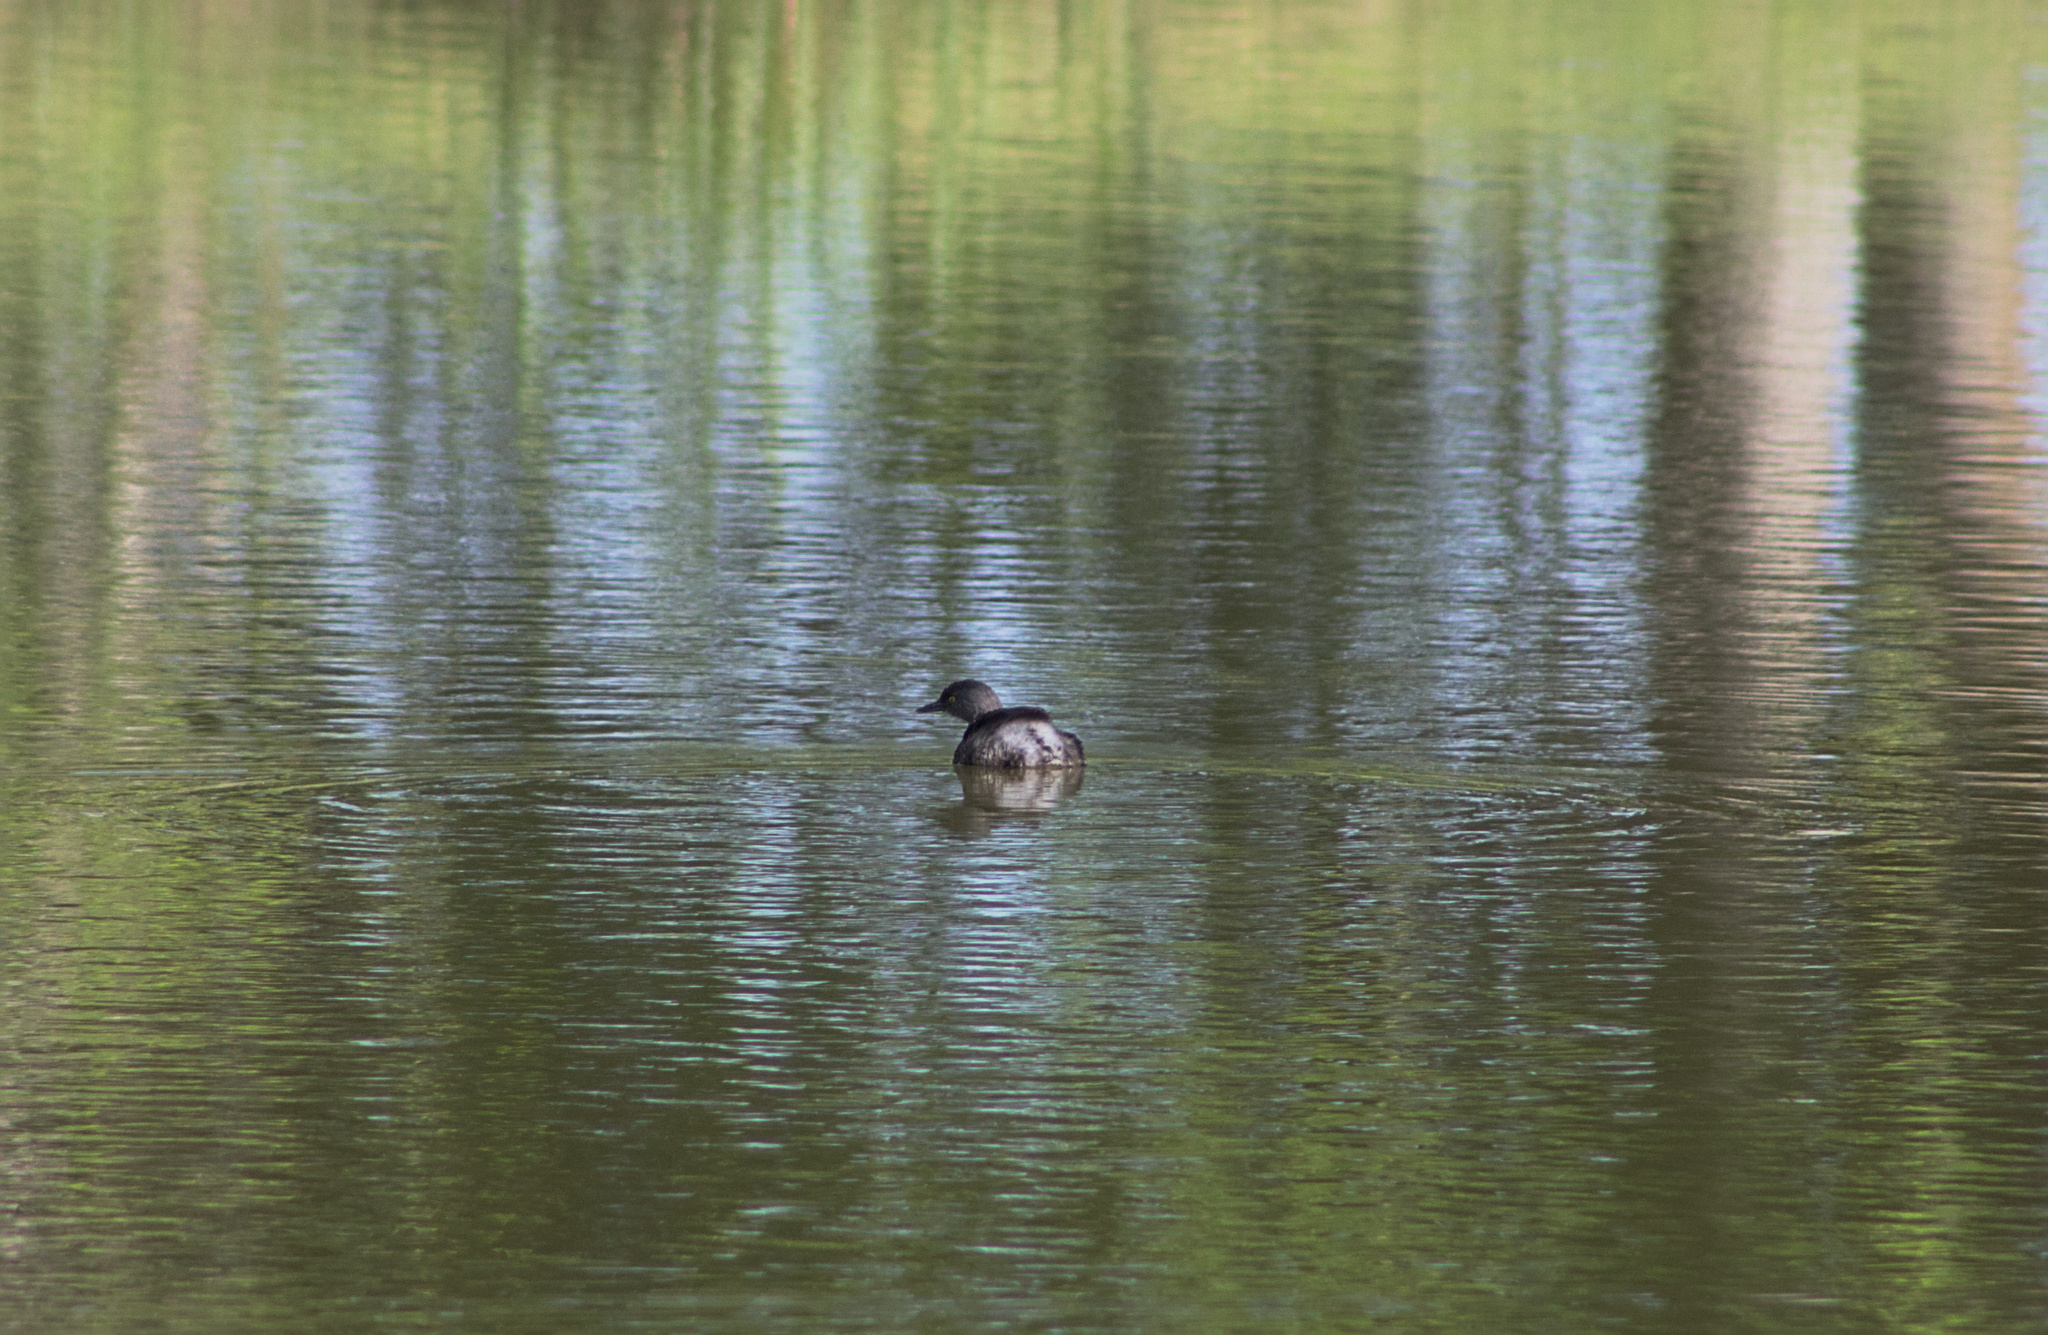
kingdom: Animalia
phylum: Chordata
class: Aves
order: Podicipediformes
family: Podicipedidae
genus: Tachybaptus
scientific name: Tachybaptus dominicus
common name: Least grebe
